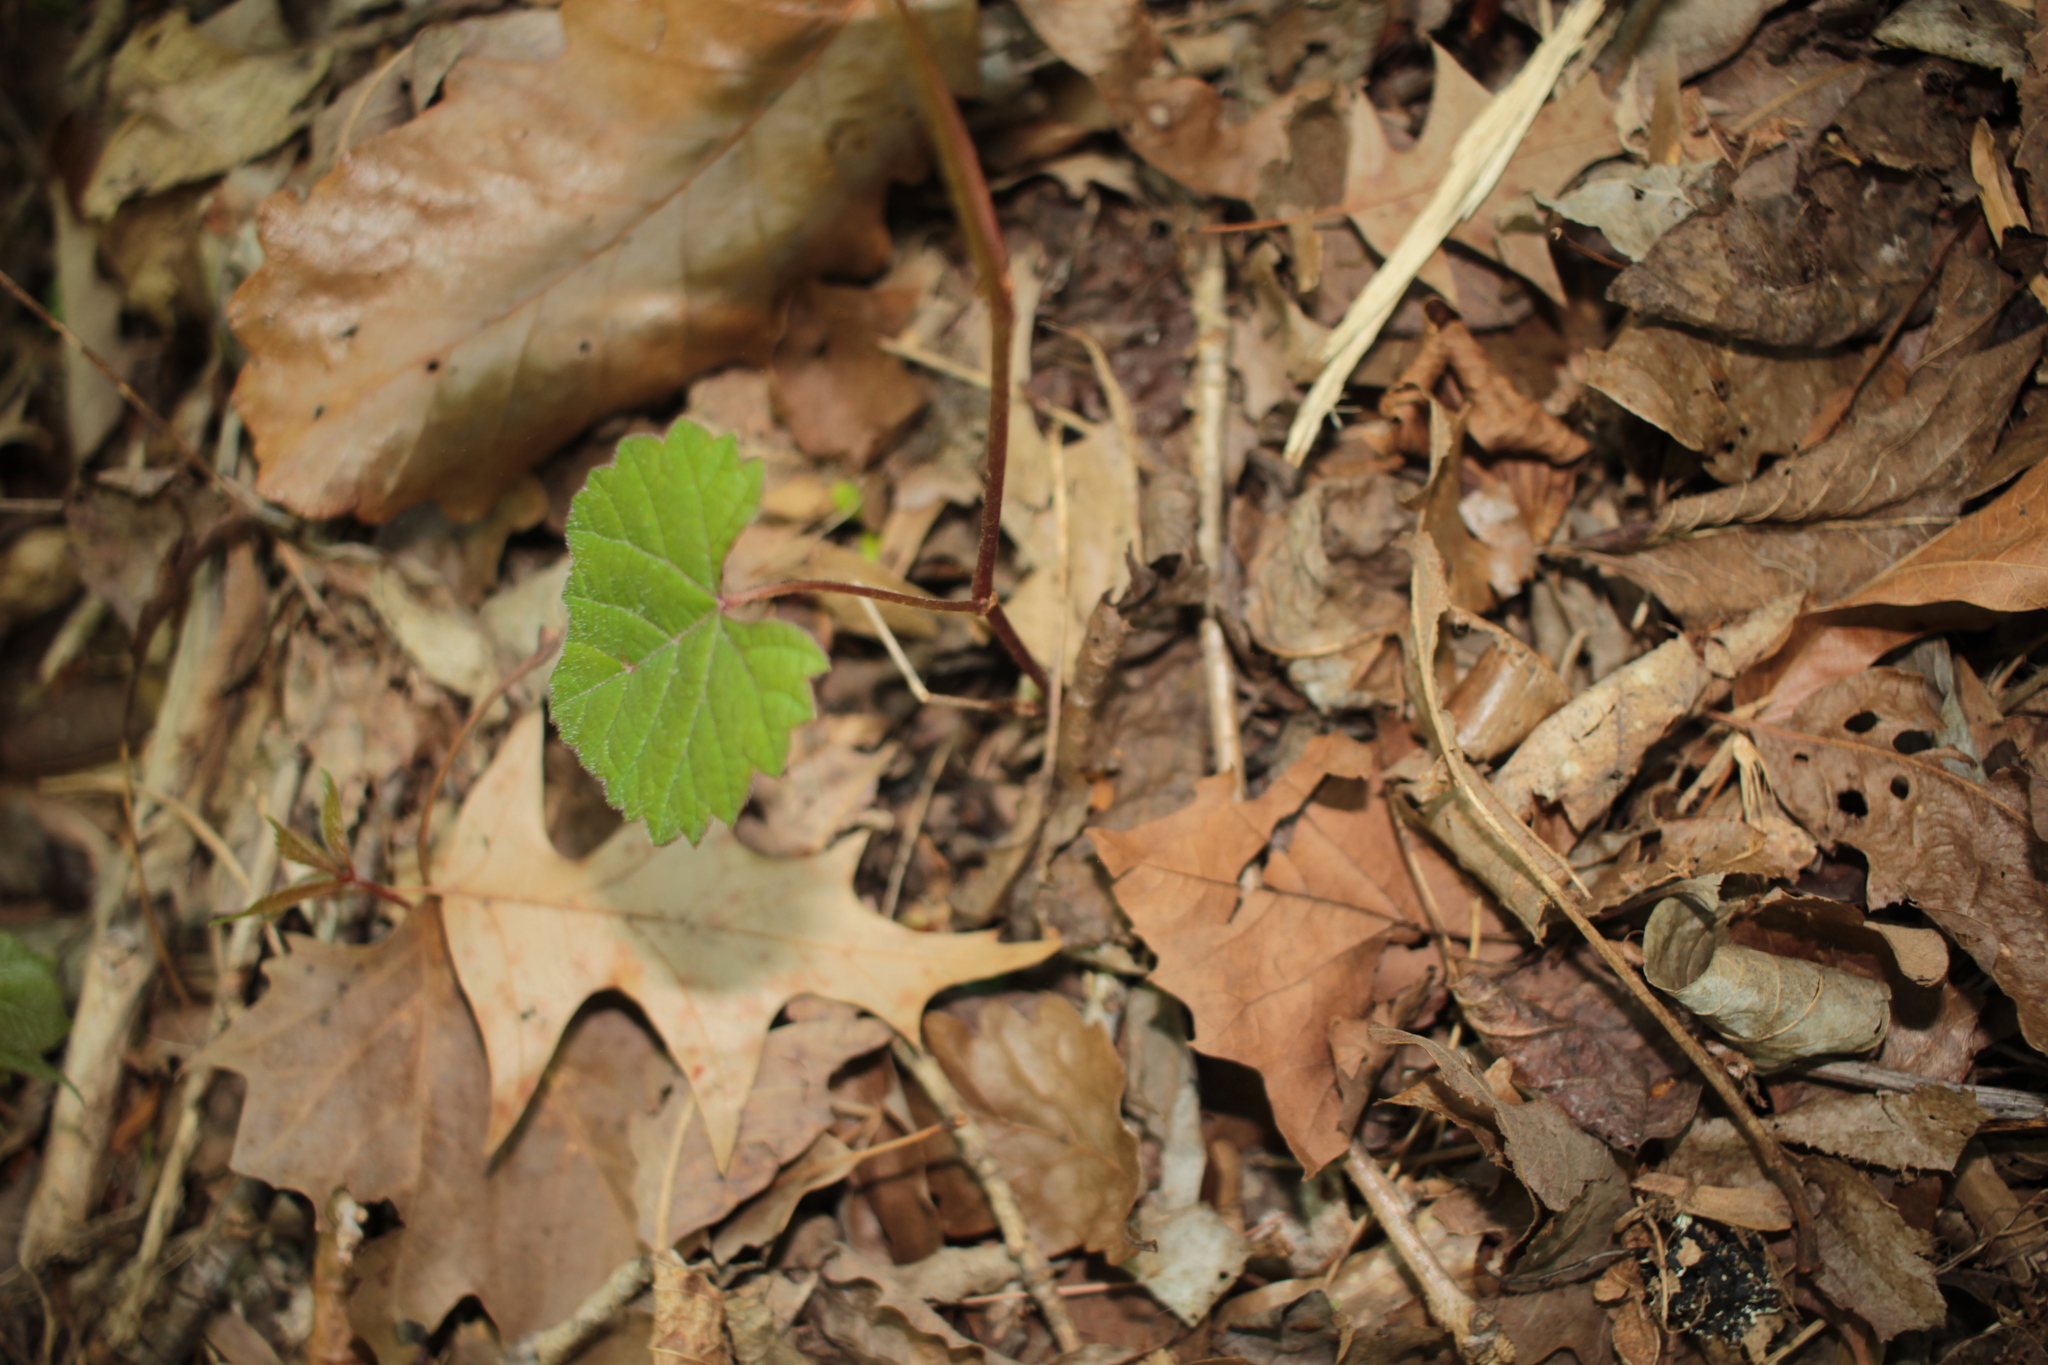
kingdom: Plantae
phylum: Tracheophyta
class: Magnoliopsida
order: Vitales
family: Vitaceae
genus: Vitis
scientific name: Vitis rotundifolia
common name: Muscadine grape
